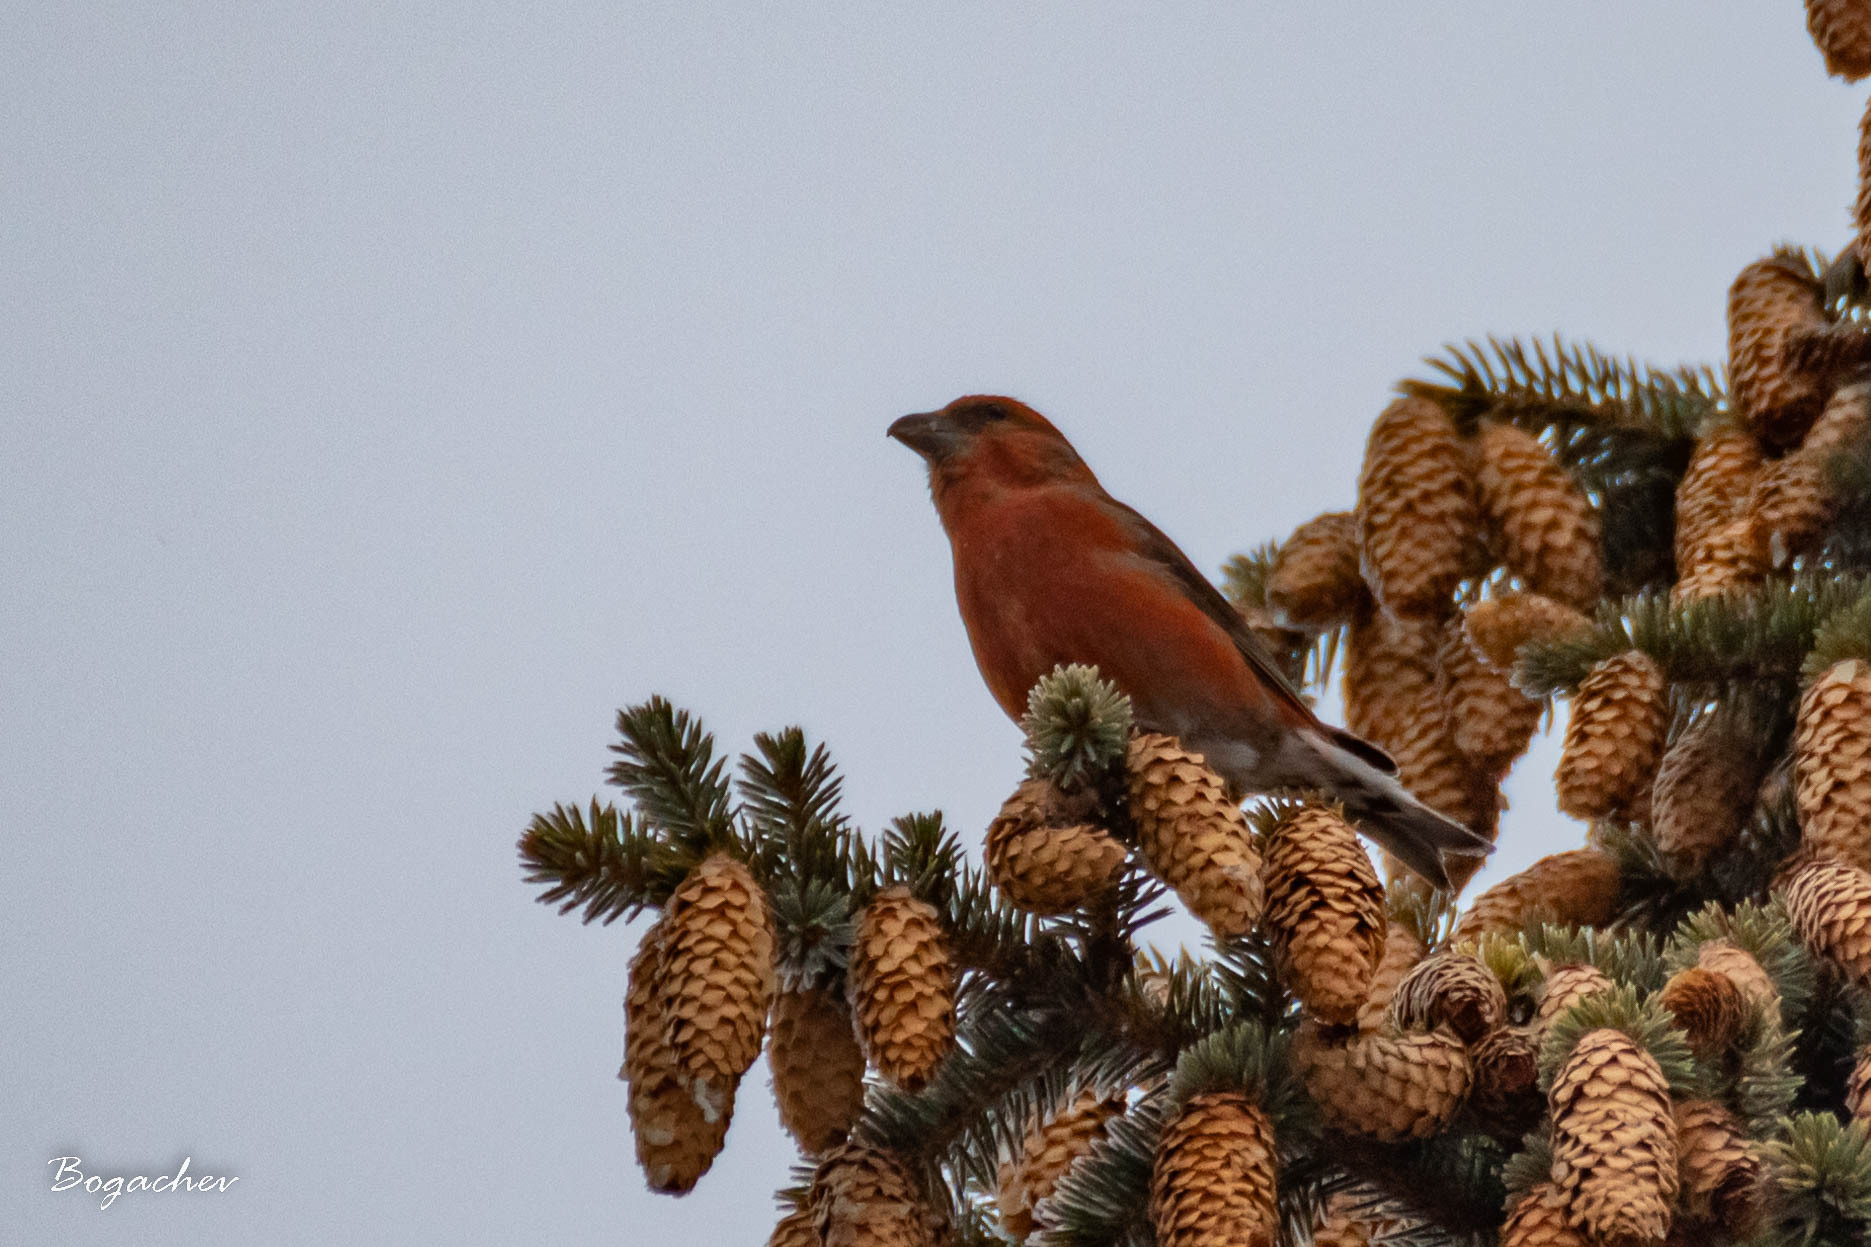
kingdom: Animalia
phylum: Chordata
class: Aves
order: Passeriformes
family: Fringillidae
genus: Loxia
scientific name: Loxia curvirostra
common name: Red crossbill
